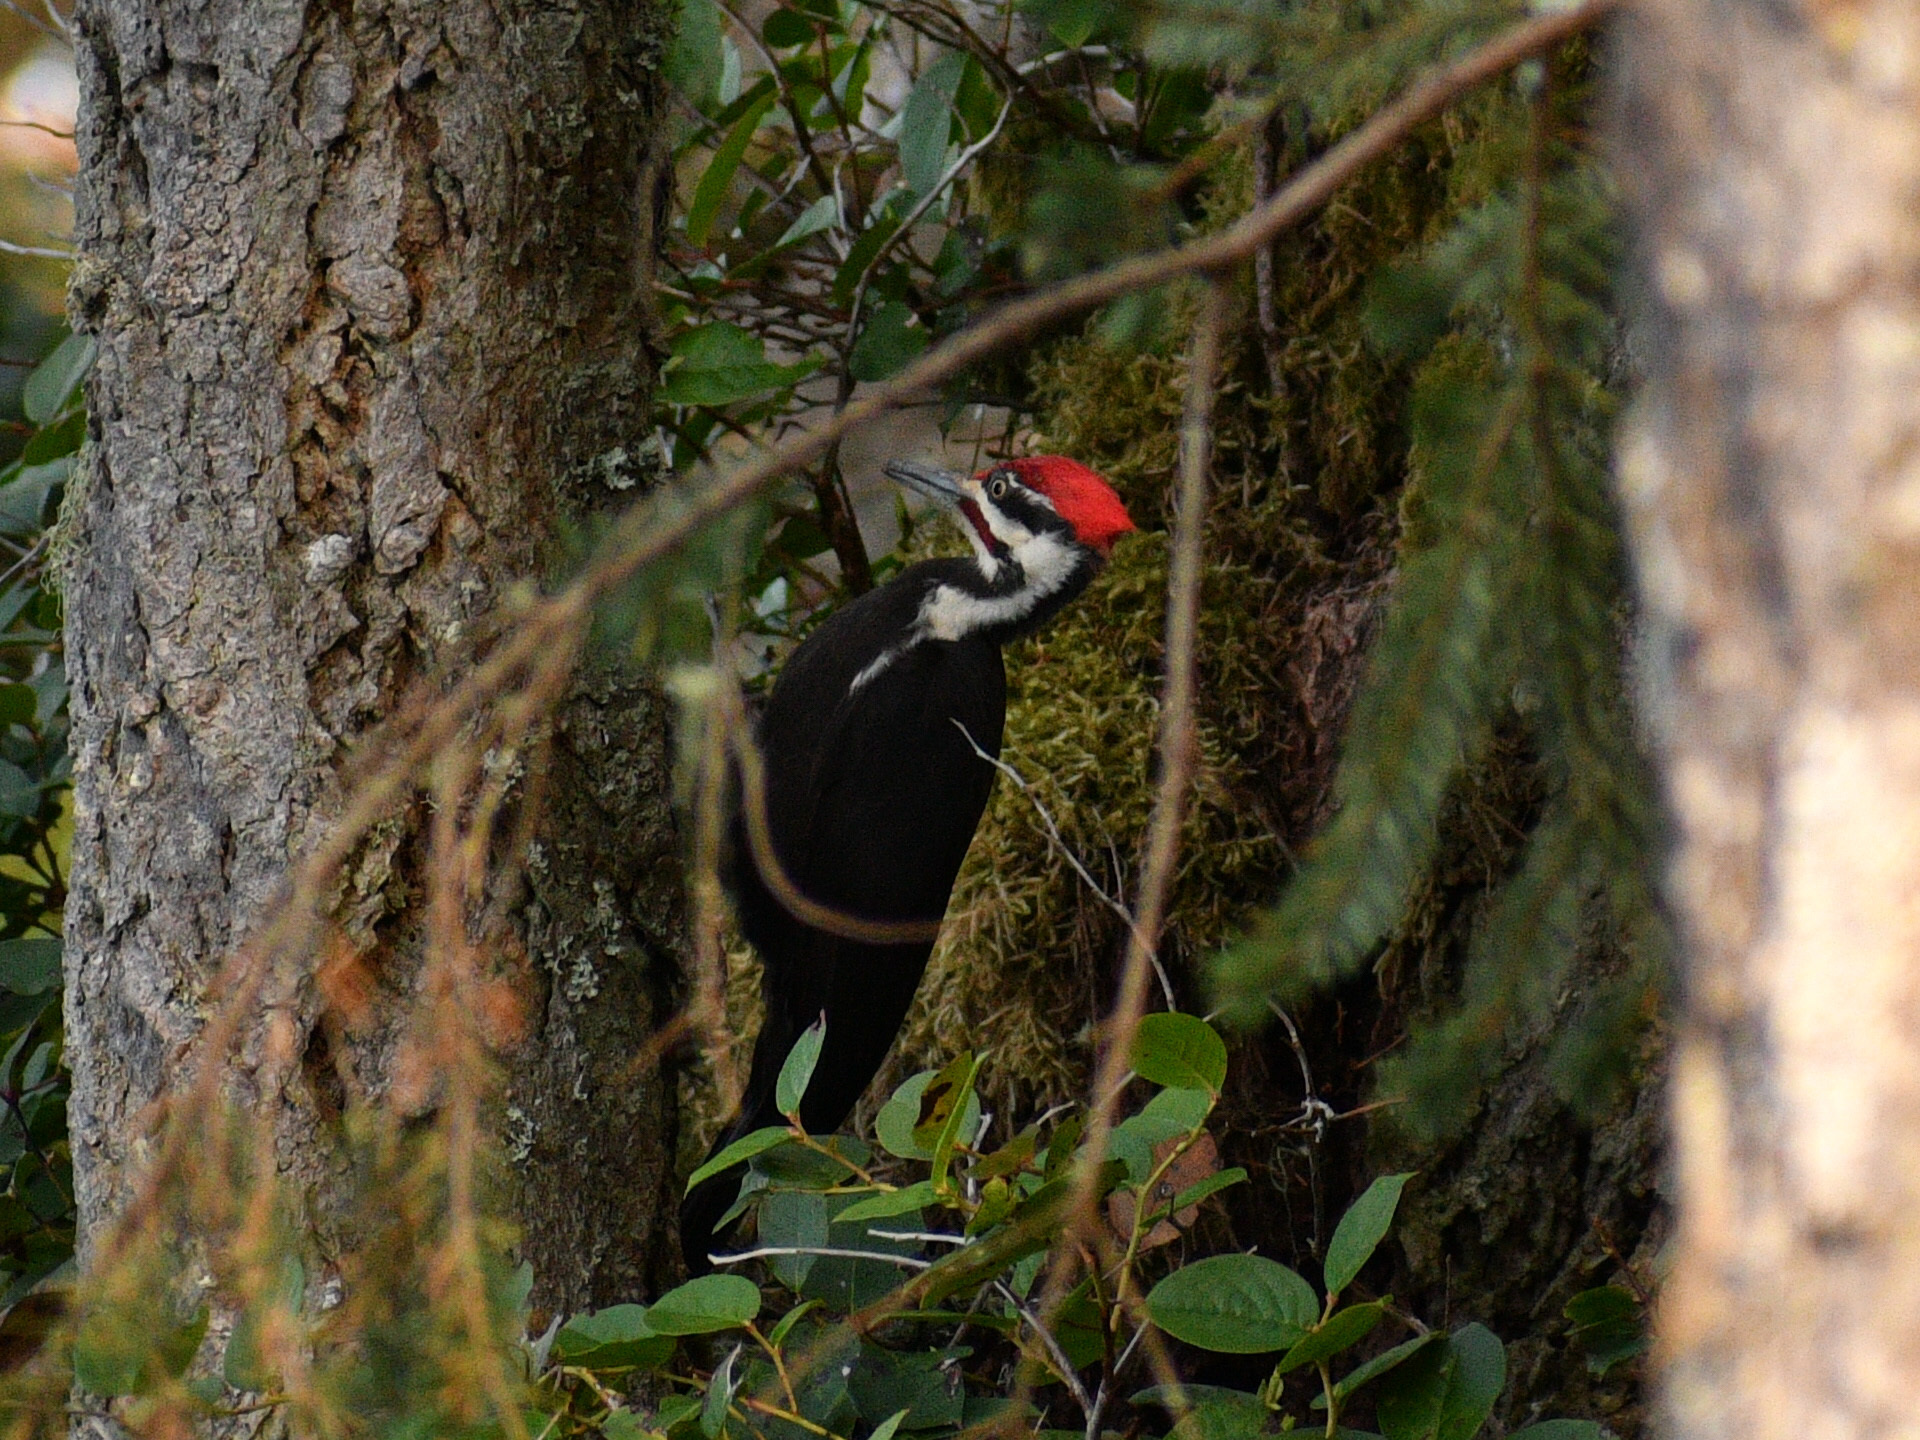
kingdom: Animalia
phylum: Chordata
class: Aves
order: Piciformes
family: Picidae
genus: Dryocopus
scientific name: Dryocopus pileatus
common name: Pileated woodpecker
